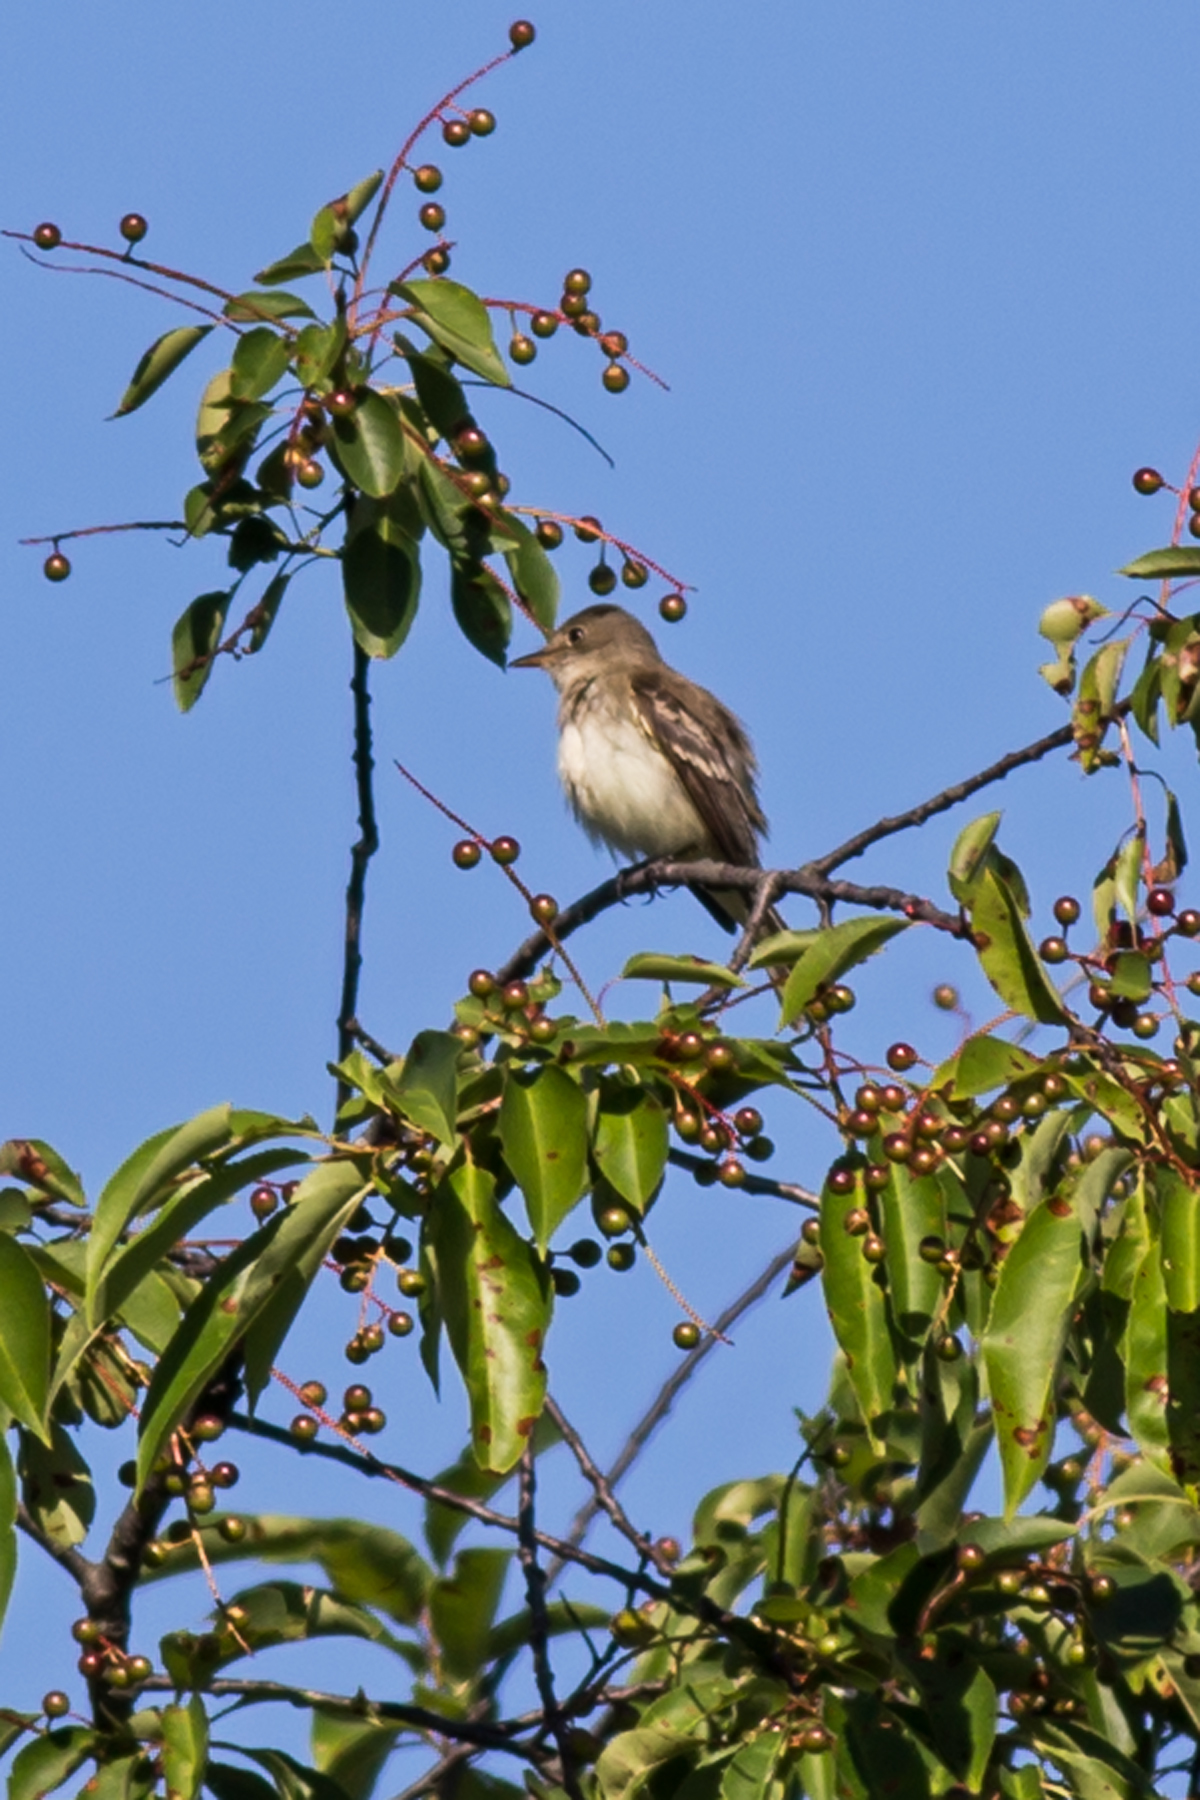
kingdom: Animalia
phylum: Chordata
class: Aves
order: Passeriformes
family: Tyrannidae
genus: Empidonax
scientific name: Empidonax traillii
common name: Willow flycatcher
